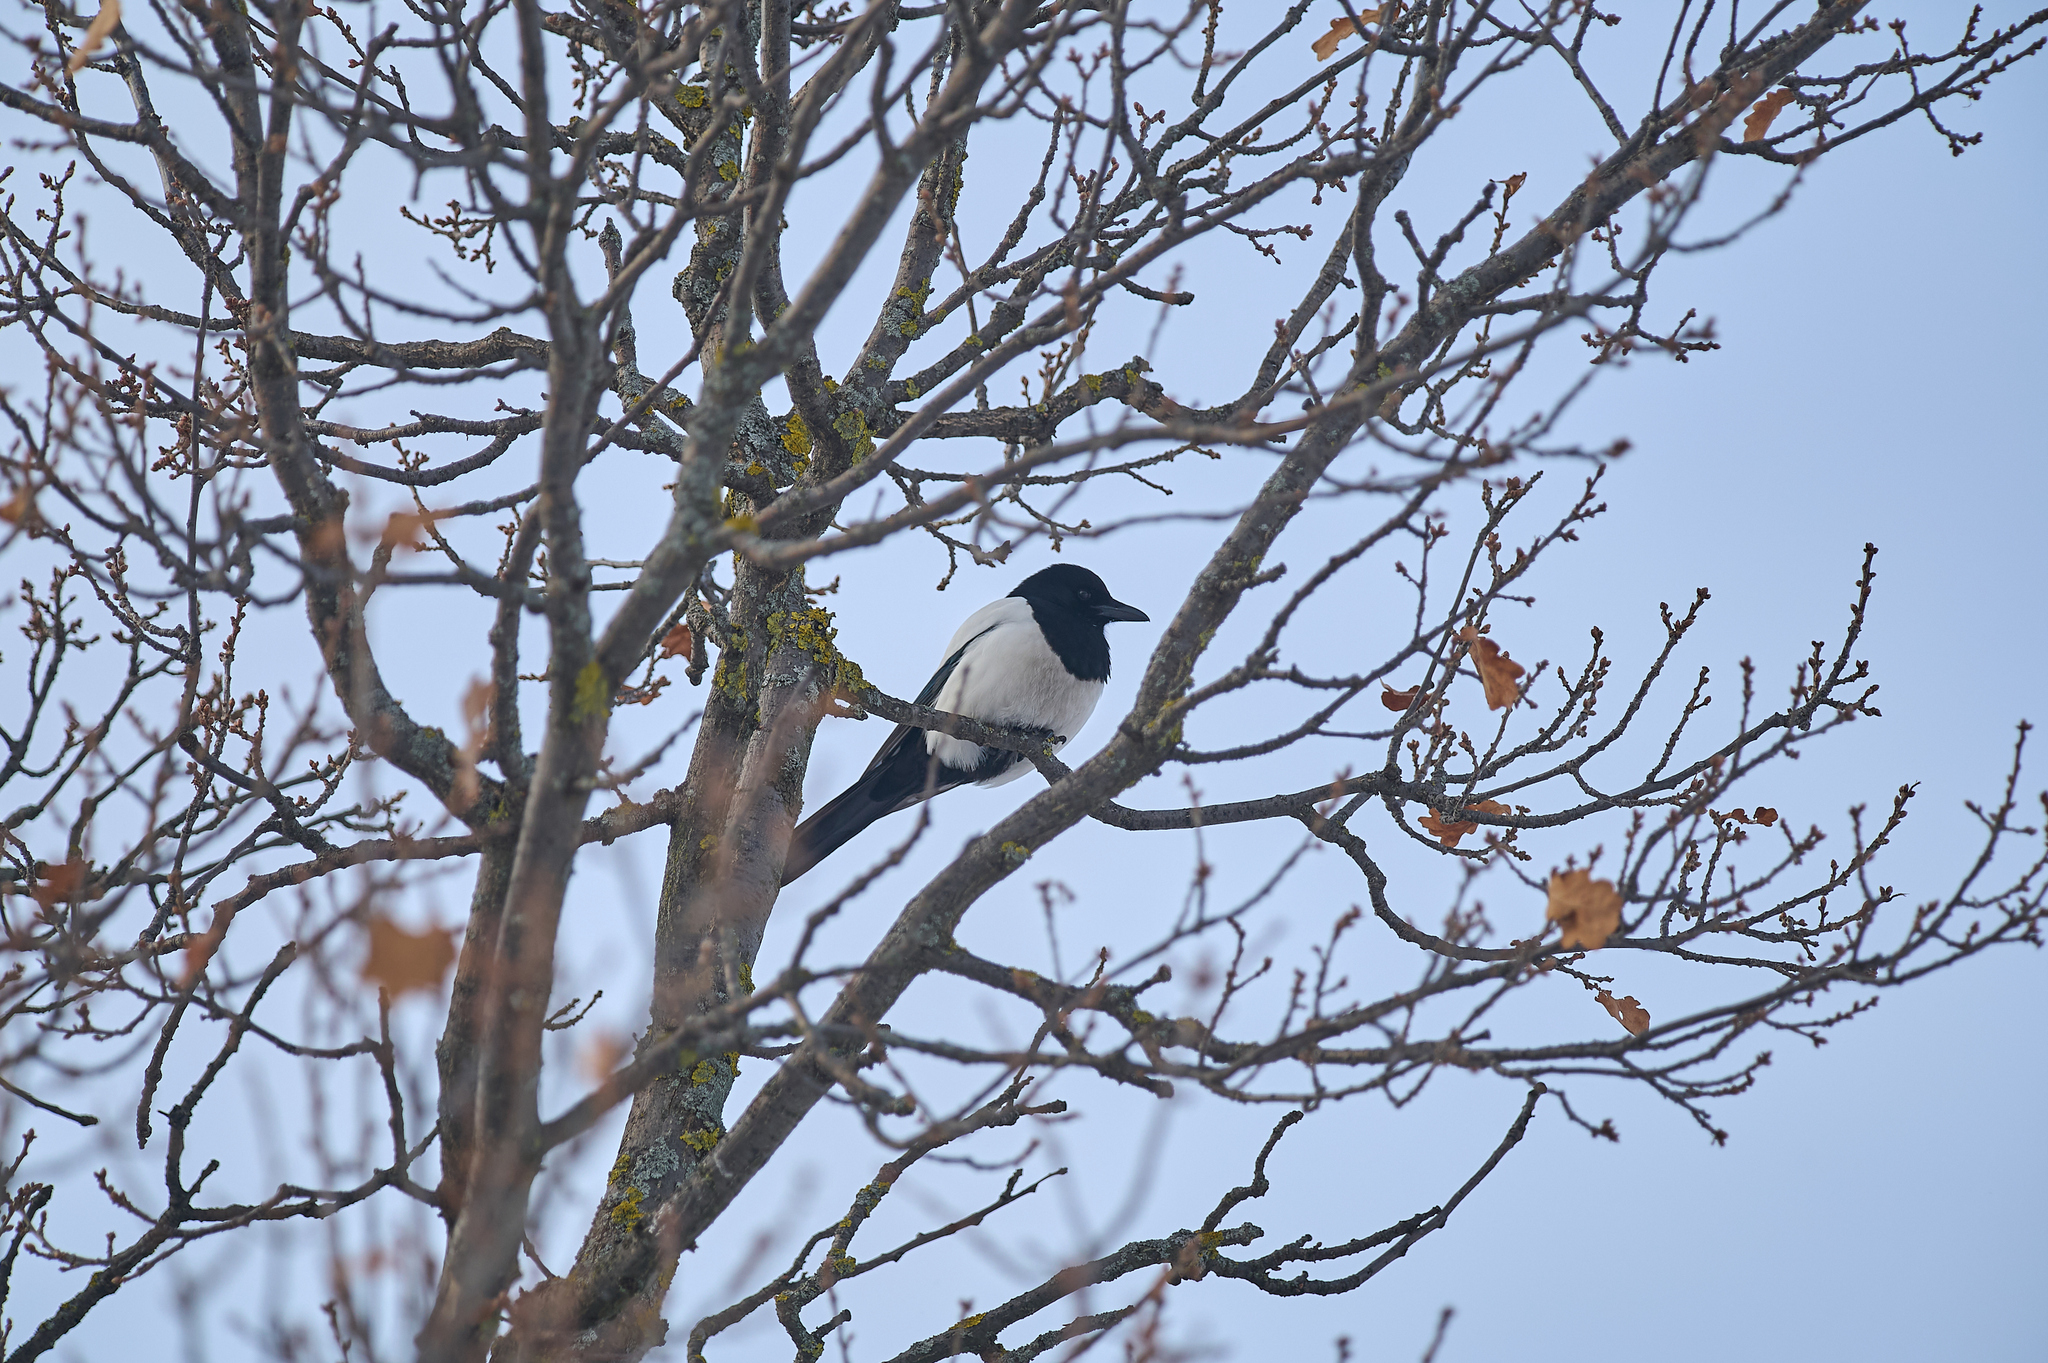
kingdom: Animalia
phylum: Chordata
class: Aves
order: Passeriformes
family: Corvidae
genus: Pica
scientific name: Pica pica
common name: Eurasian magpie
